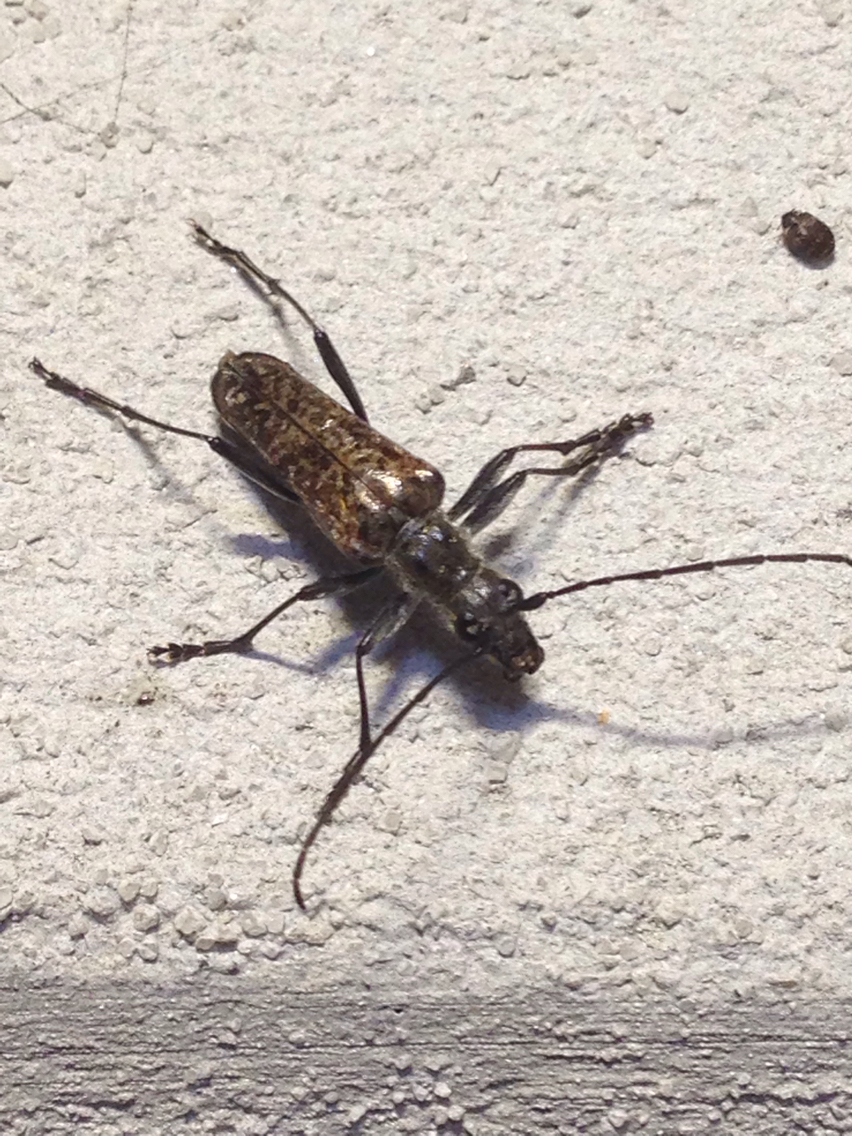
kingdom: Animalia
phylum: Arthropoda
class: Insecta
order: Coleoptera
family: Cerambycidae
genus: Anthophylax
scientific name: Anthophylax attenuatus
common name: Mottled longhorned beetle
